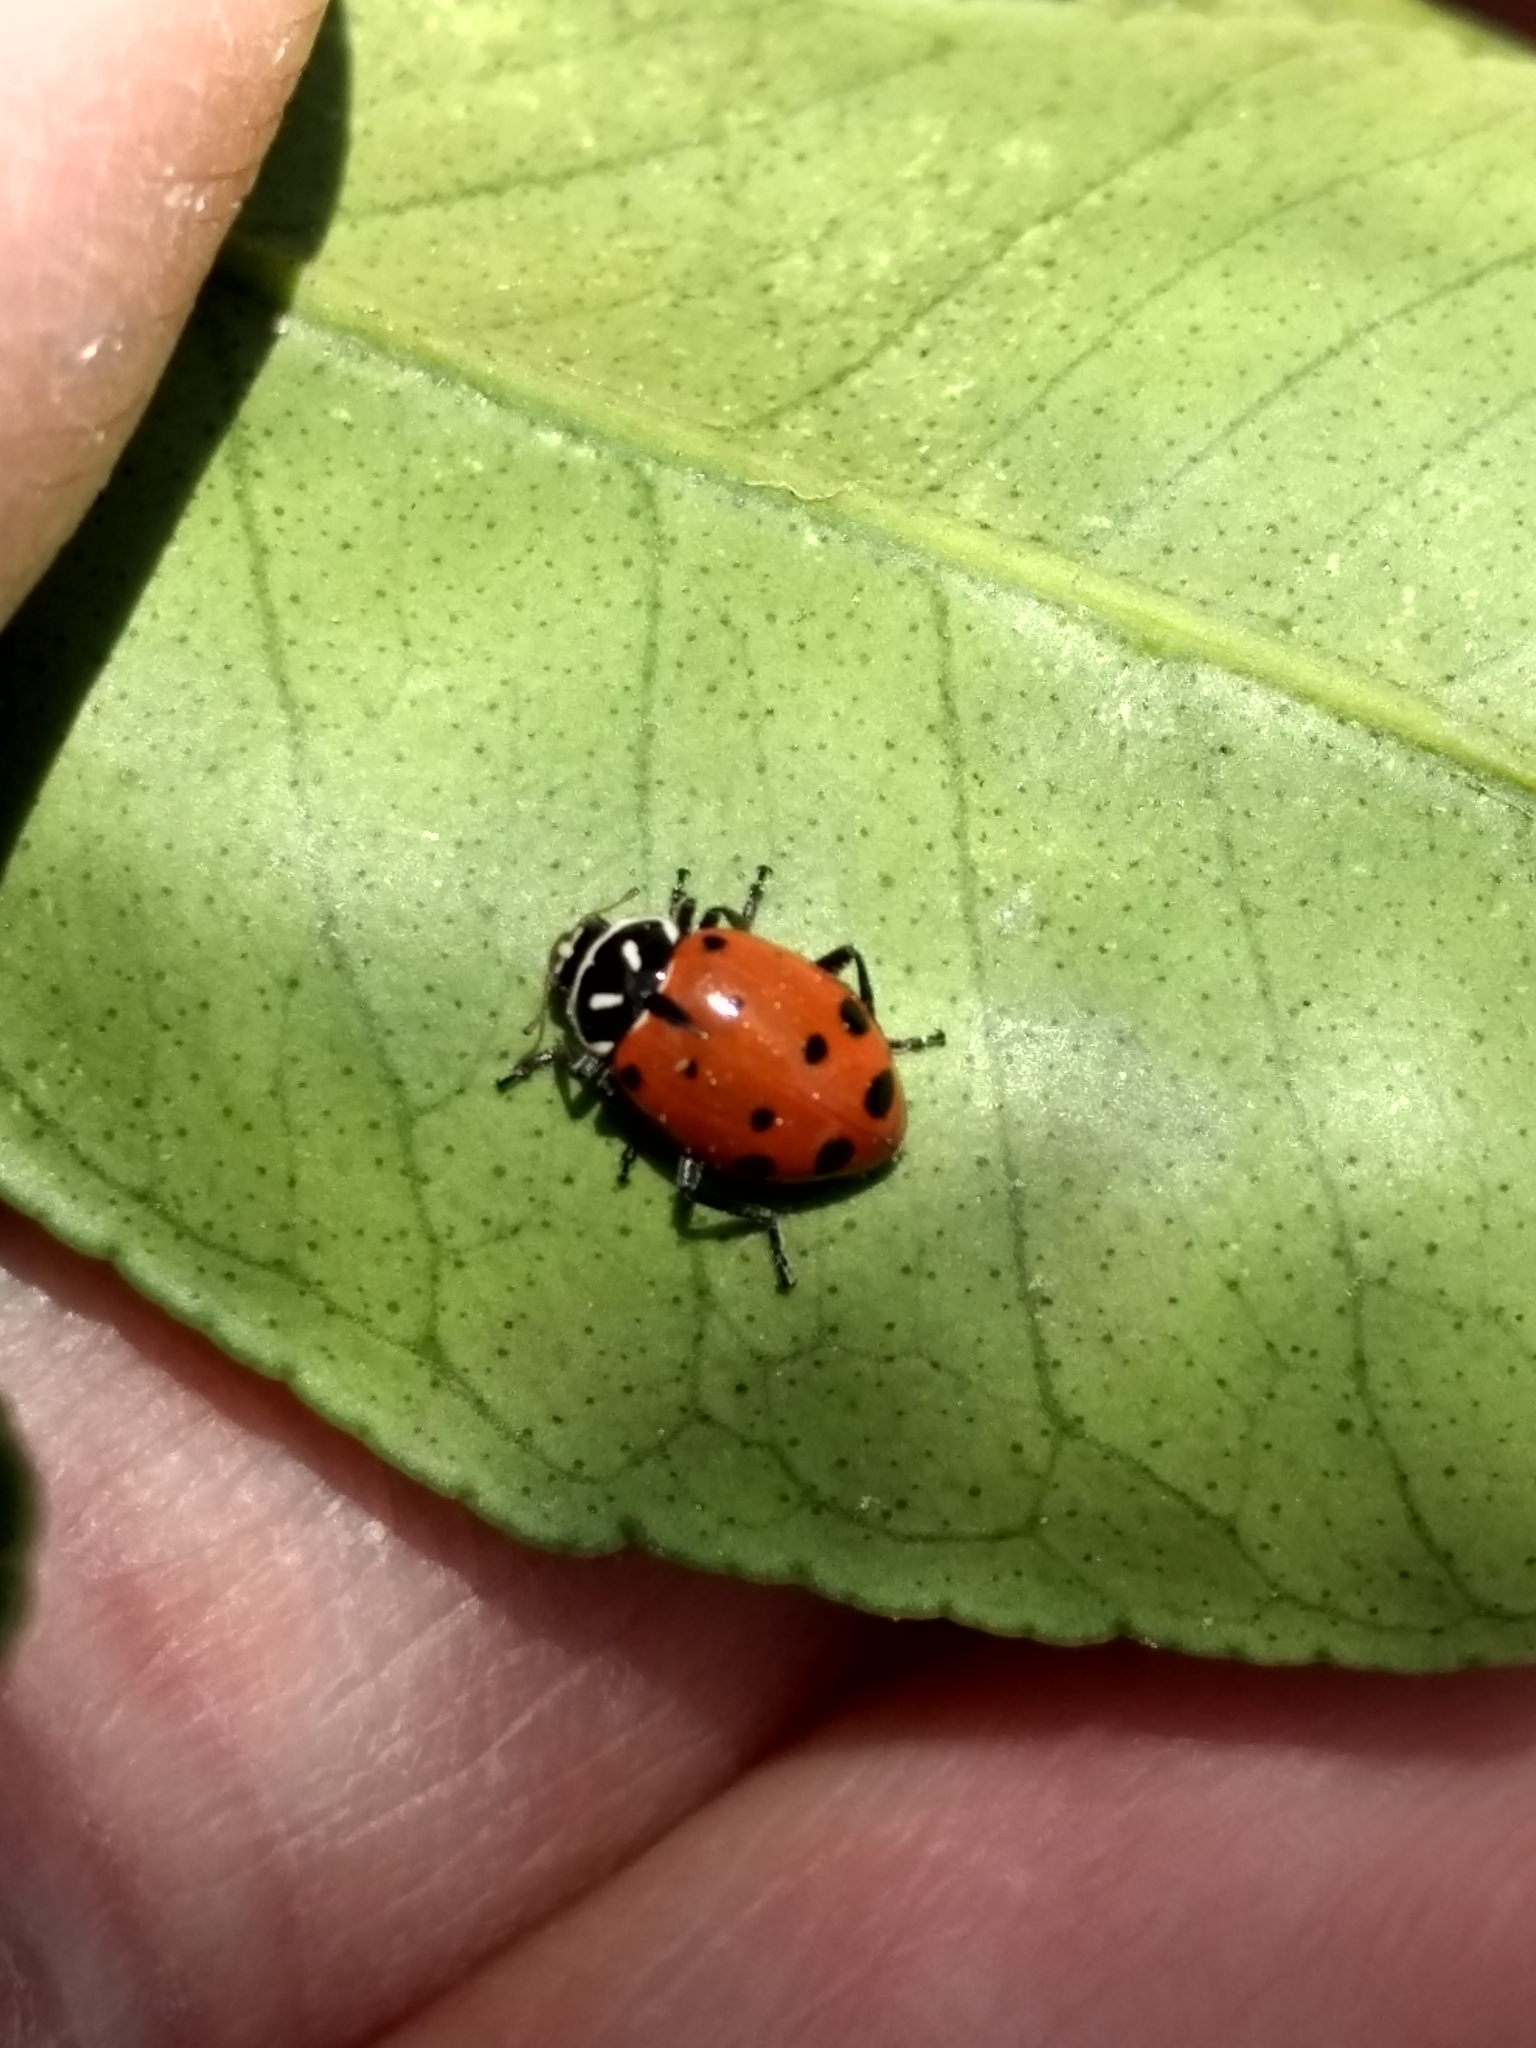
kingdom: Animalia
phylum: Arthropoda
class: Insecta
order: Coleoptera
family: Coccinellidae
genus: Hippodamia
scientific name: Hippodamia convergens
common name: Convergent lady beetle
